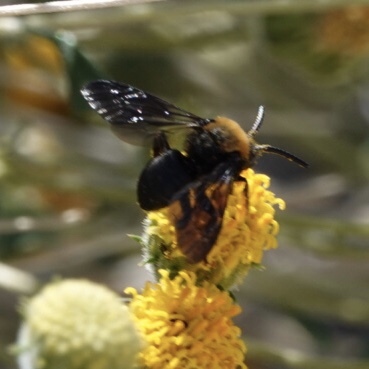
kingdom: Animalia
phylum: Arthropoda
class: Insecta
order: Hymenoptera
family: Apidae
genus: Xeromelecta
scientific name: Xeromelecta larreae
